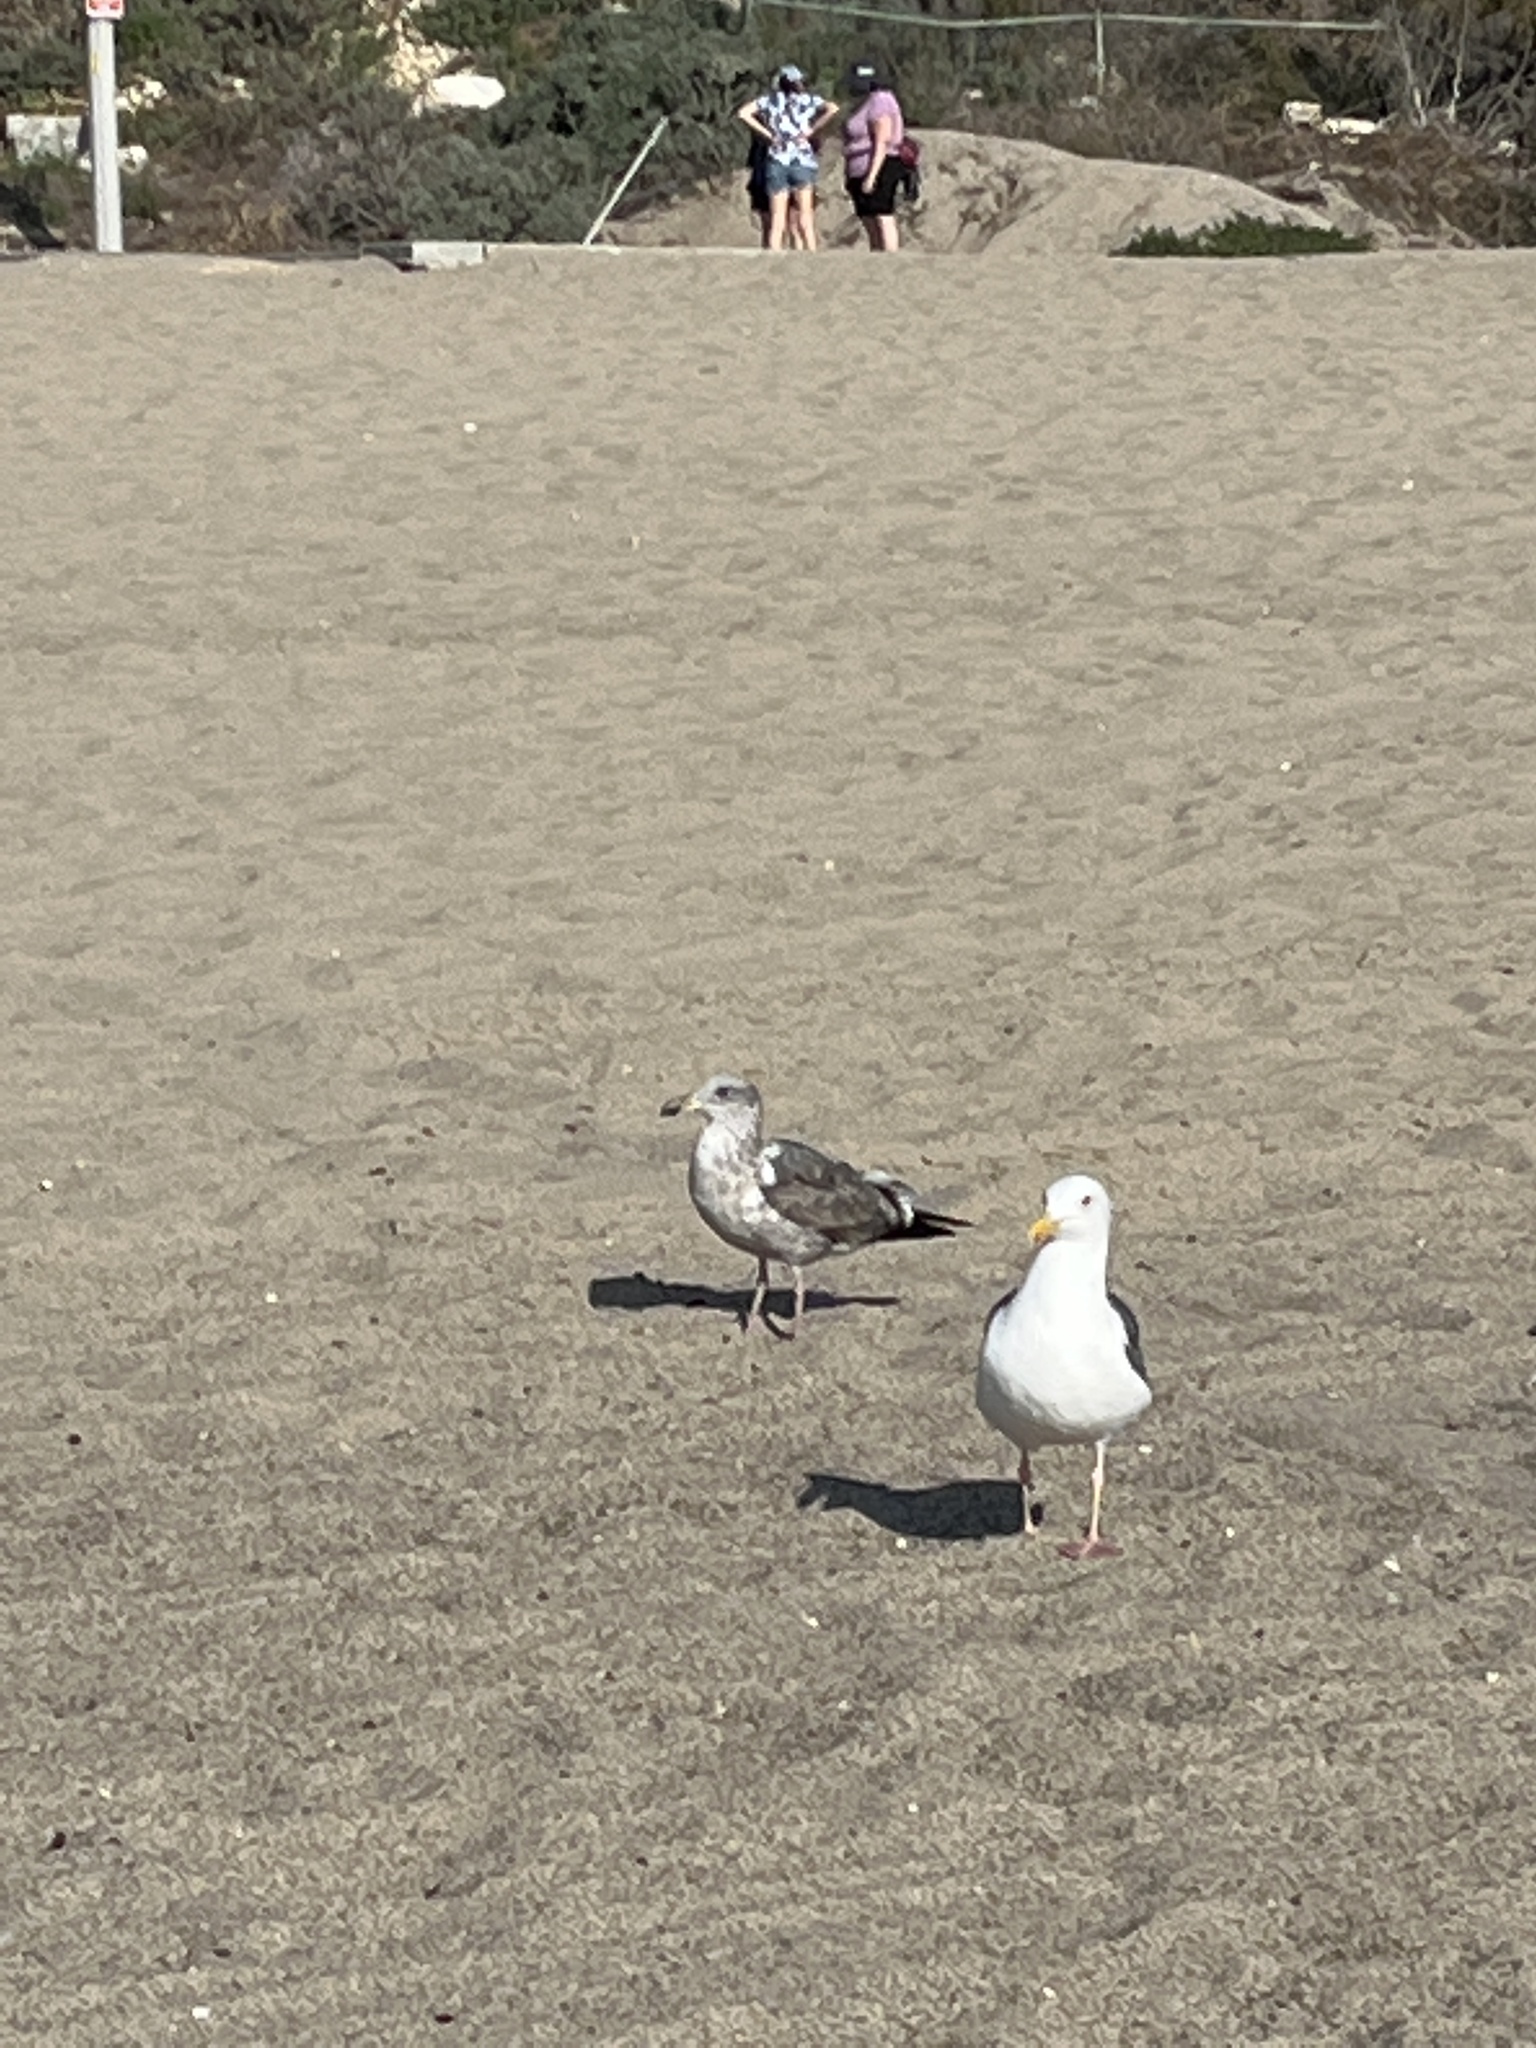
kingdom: Animalia
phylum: Chordata
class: Aves
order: Charadriiformes
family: Laridae
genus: Larus
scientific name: Larus occidentalis
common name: Western gull
